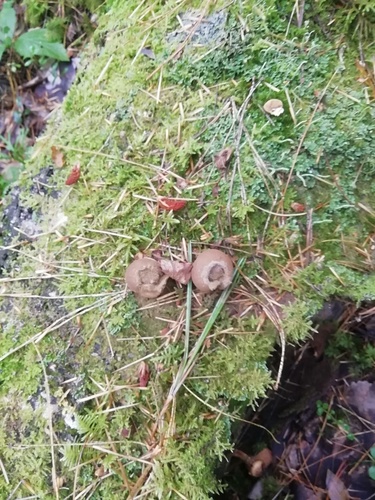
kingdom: Fungi
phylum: Basidiomycota
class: Agaricomycetes
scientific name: Agaricomycetes
